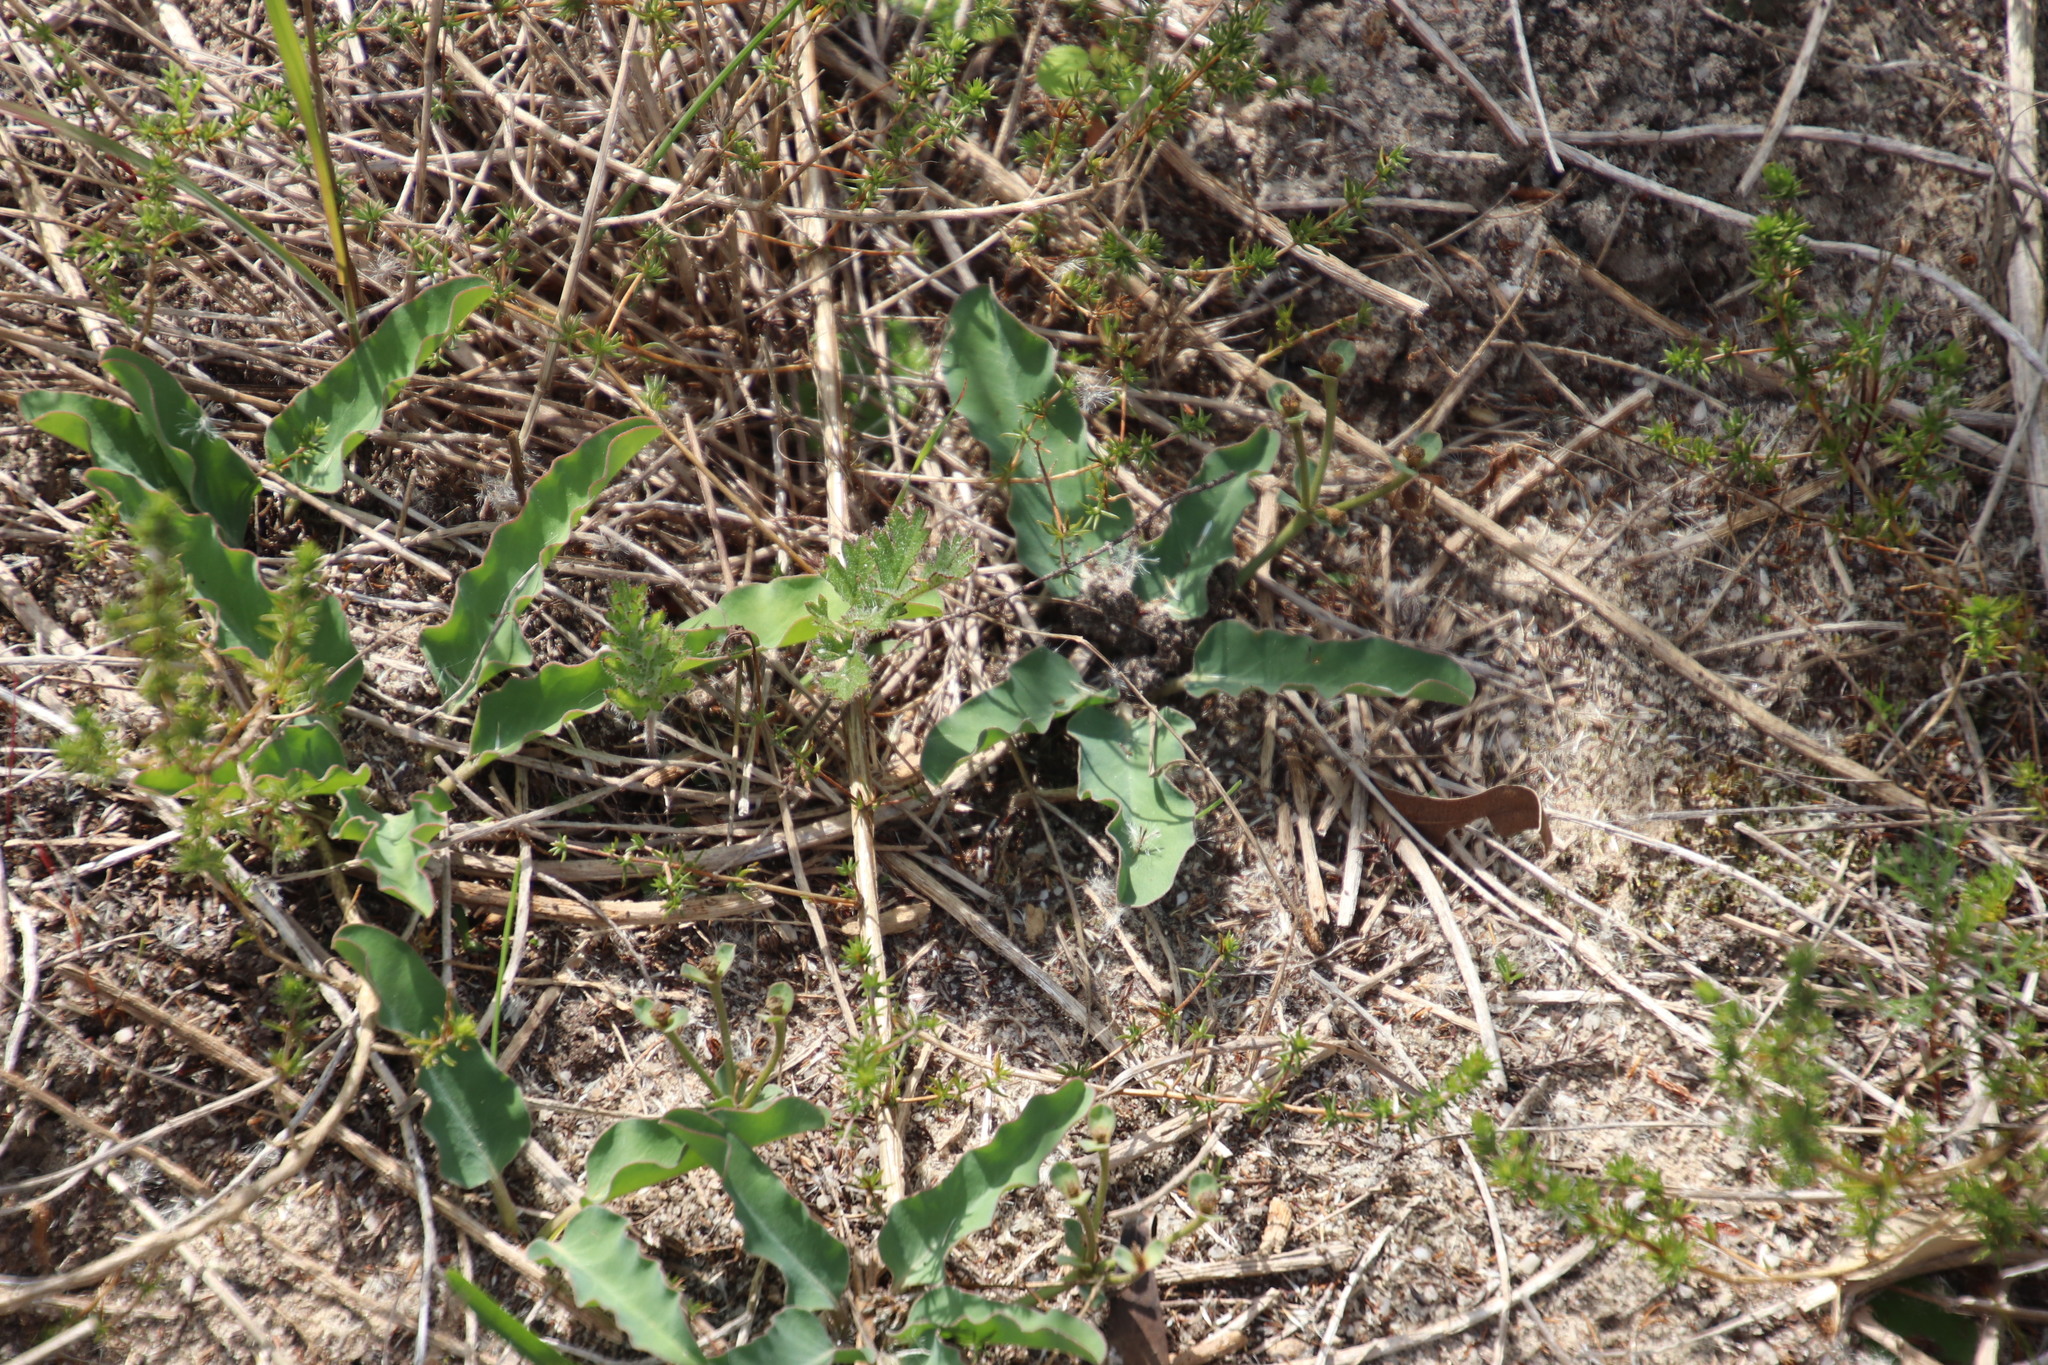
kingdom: Plantae
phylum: Tracheophyta
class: Magnoliopsida
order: Malpighiales
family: Euphorbiaceae
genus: Euphorbia
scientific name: Euphorbia tuberosa
